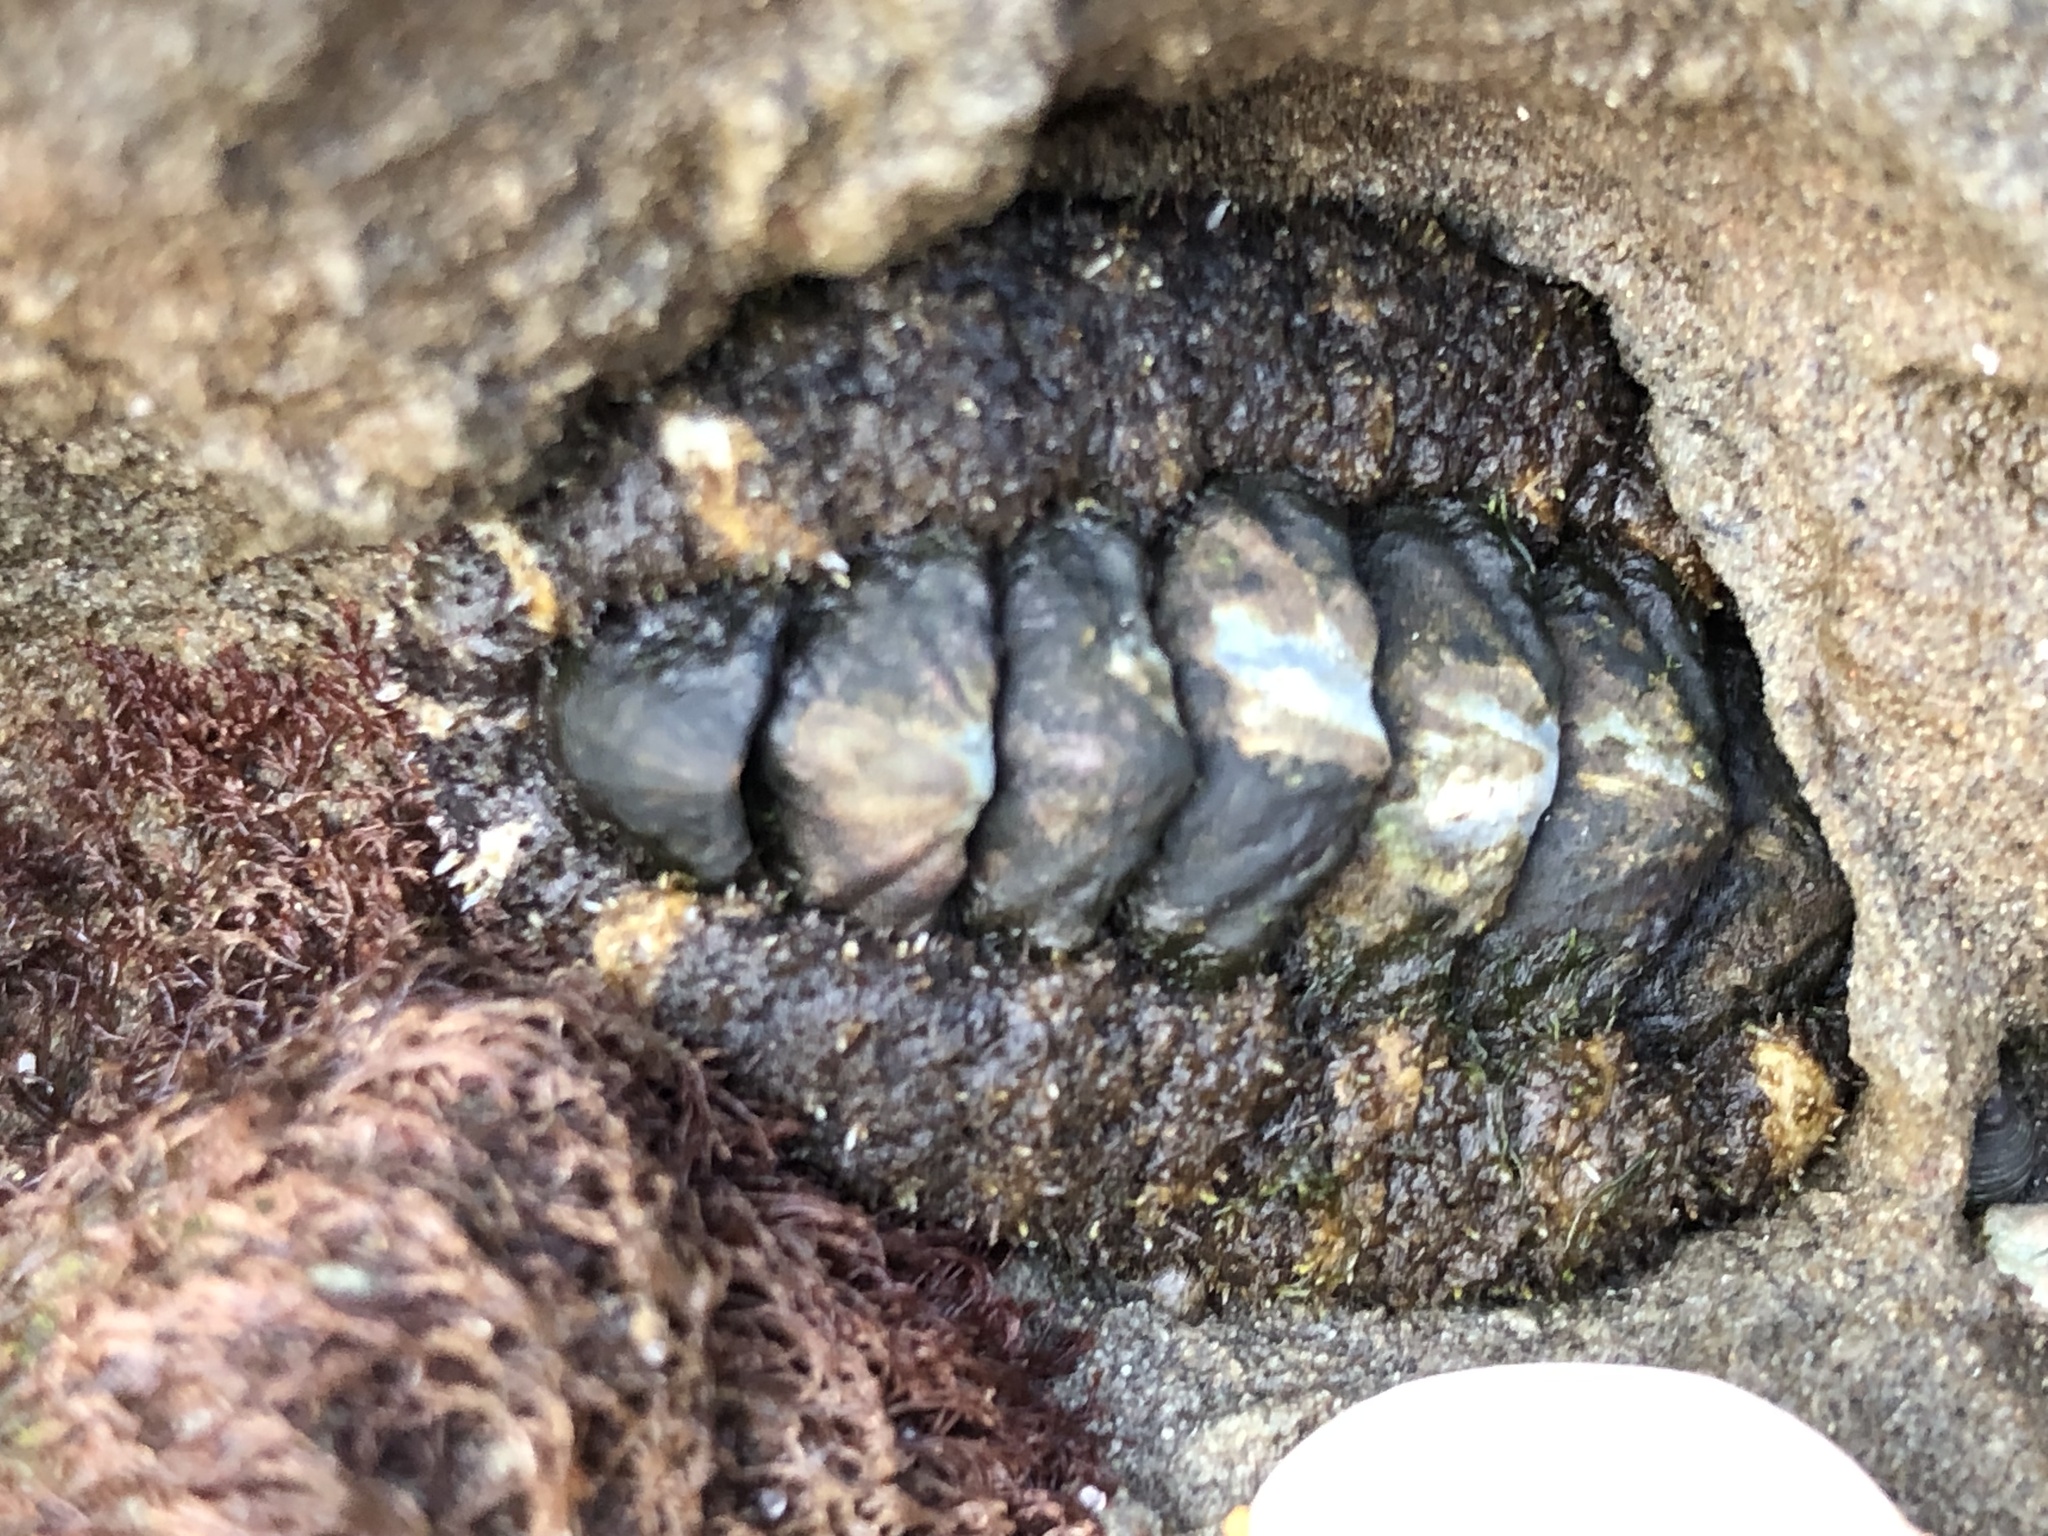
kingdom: Animalia
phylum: Mollusca
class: Polyplacophora
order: Chitonida
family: Tonicellidae
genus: Nuttallina
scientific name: Nuttallina californica
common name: California nuttall chiton
